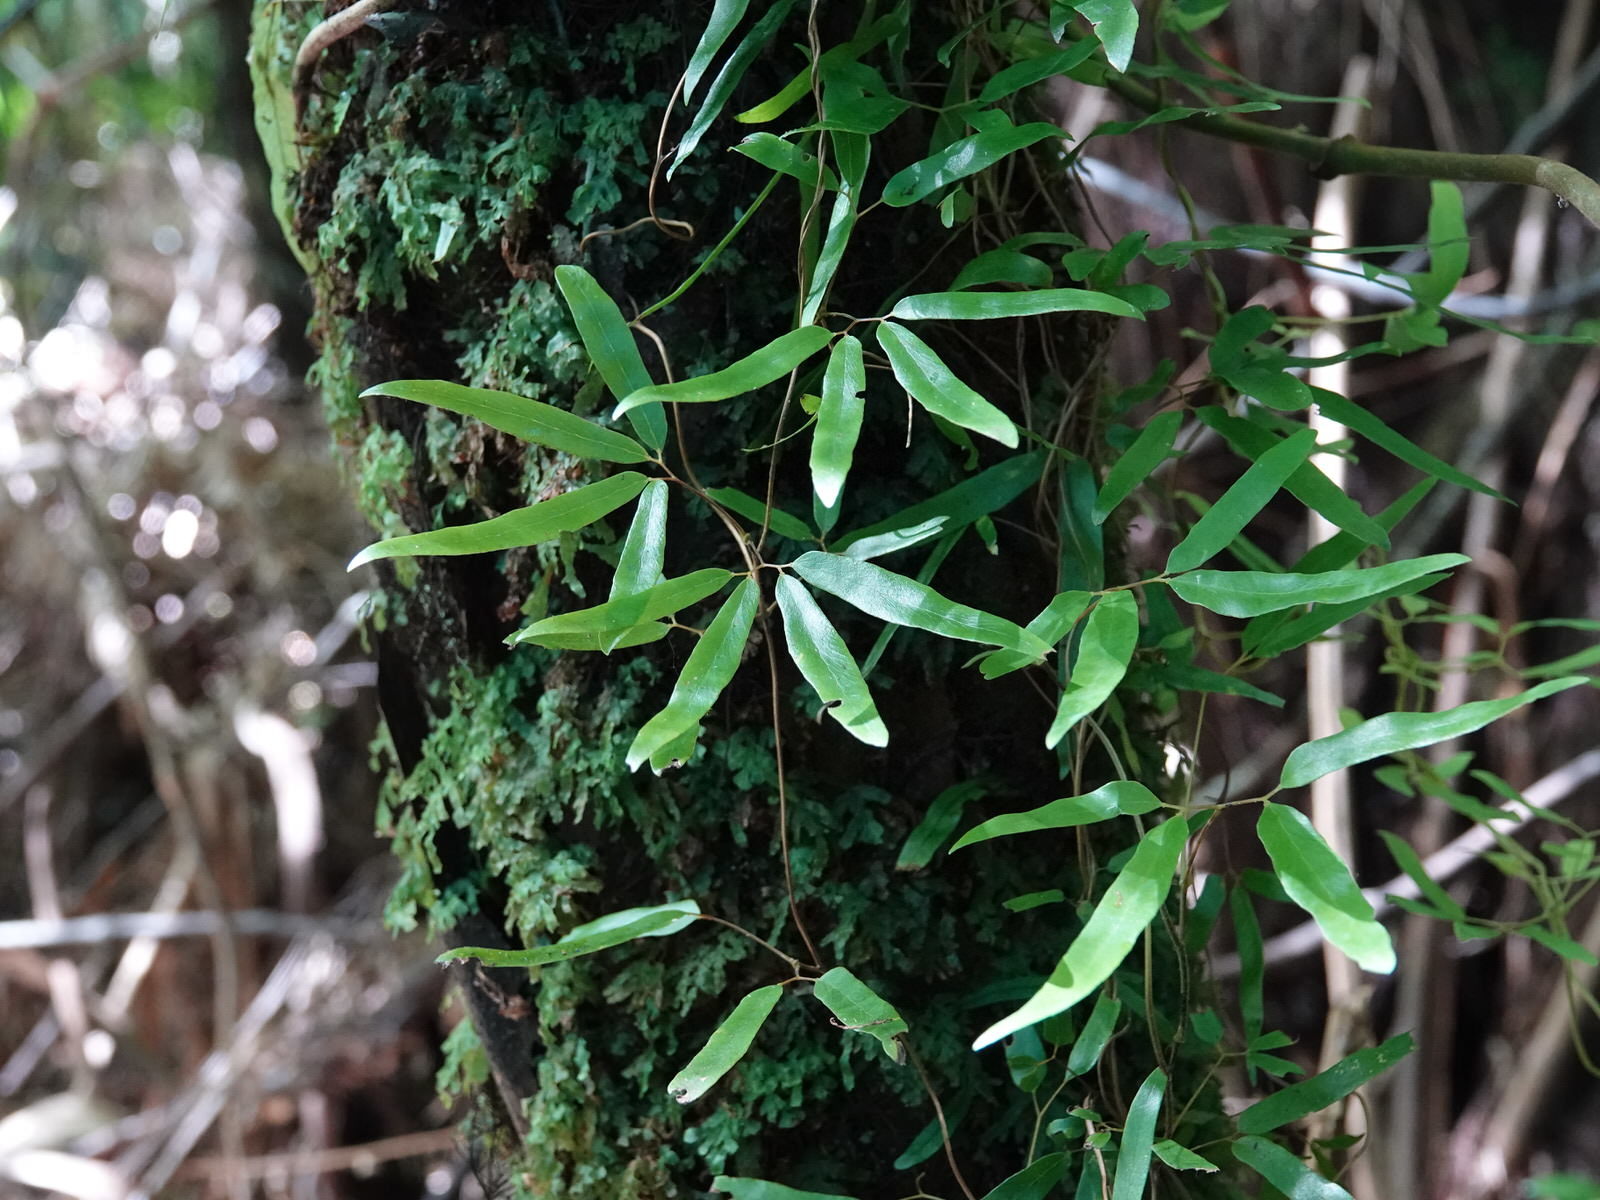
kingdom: Plantae
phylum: Tracheophyta
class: Polypodiopsida
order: Schizaeales
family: Lygodiaceae
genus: Lygodium
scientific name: Lygodium articulatum
